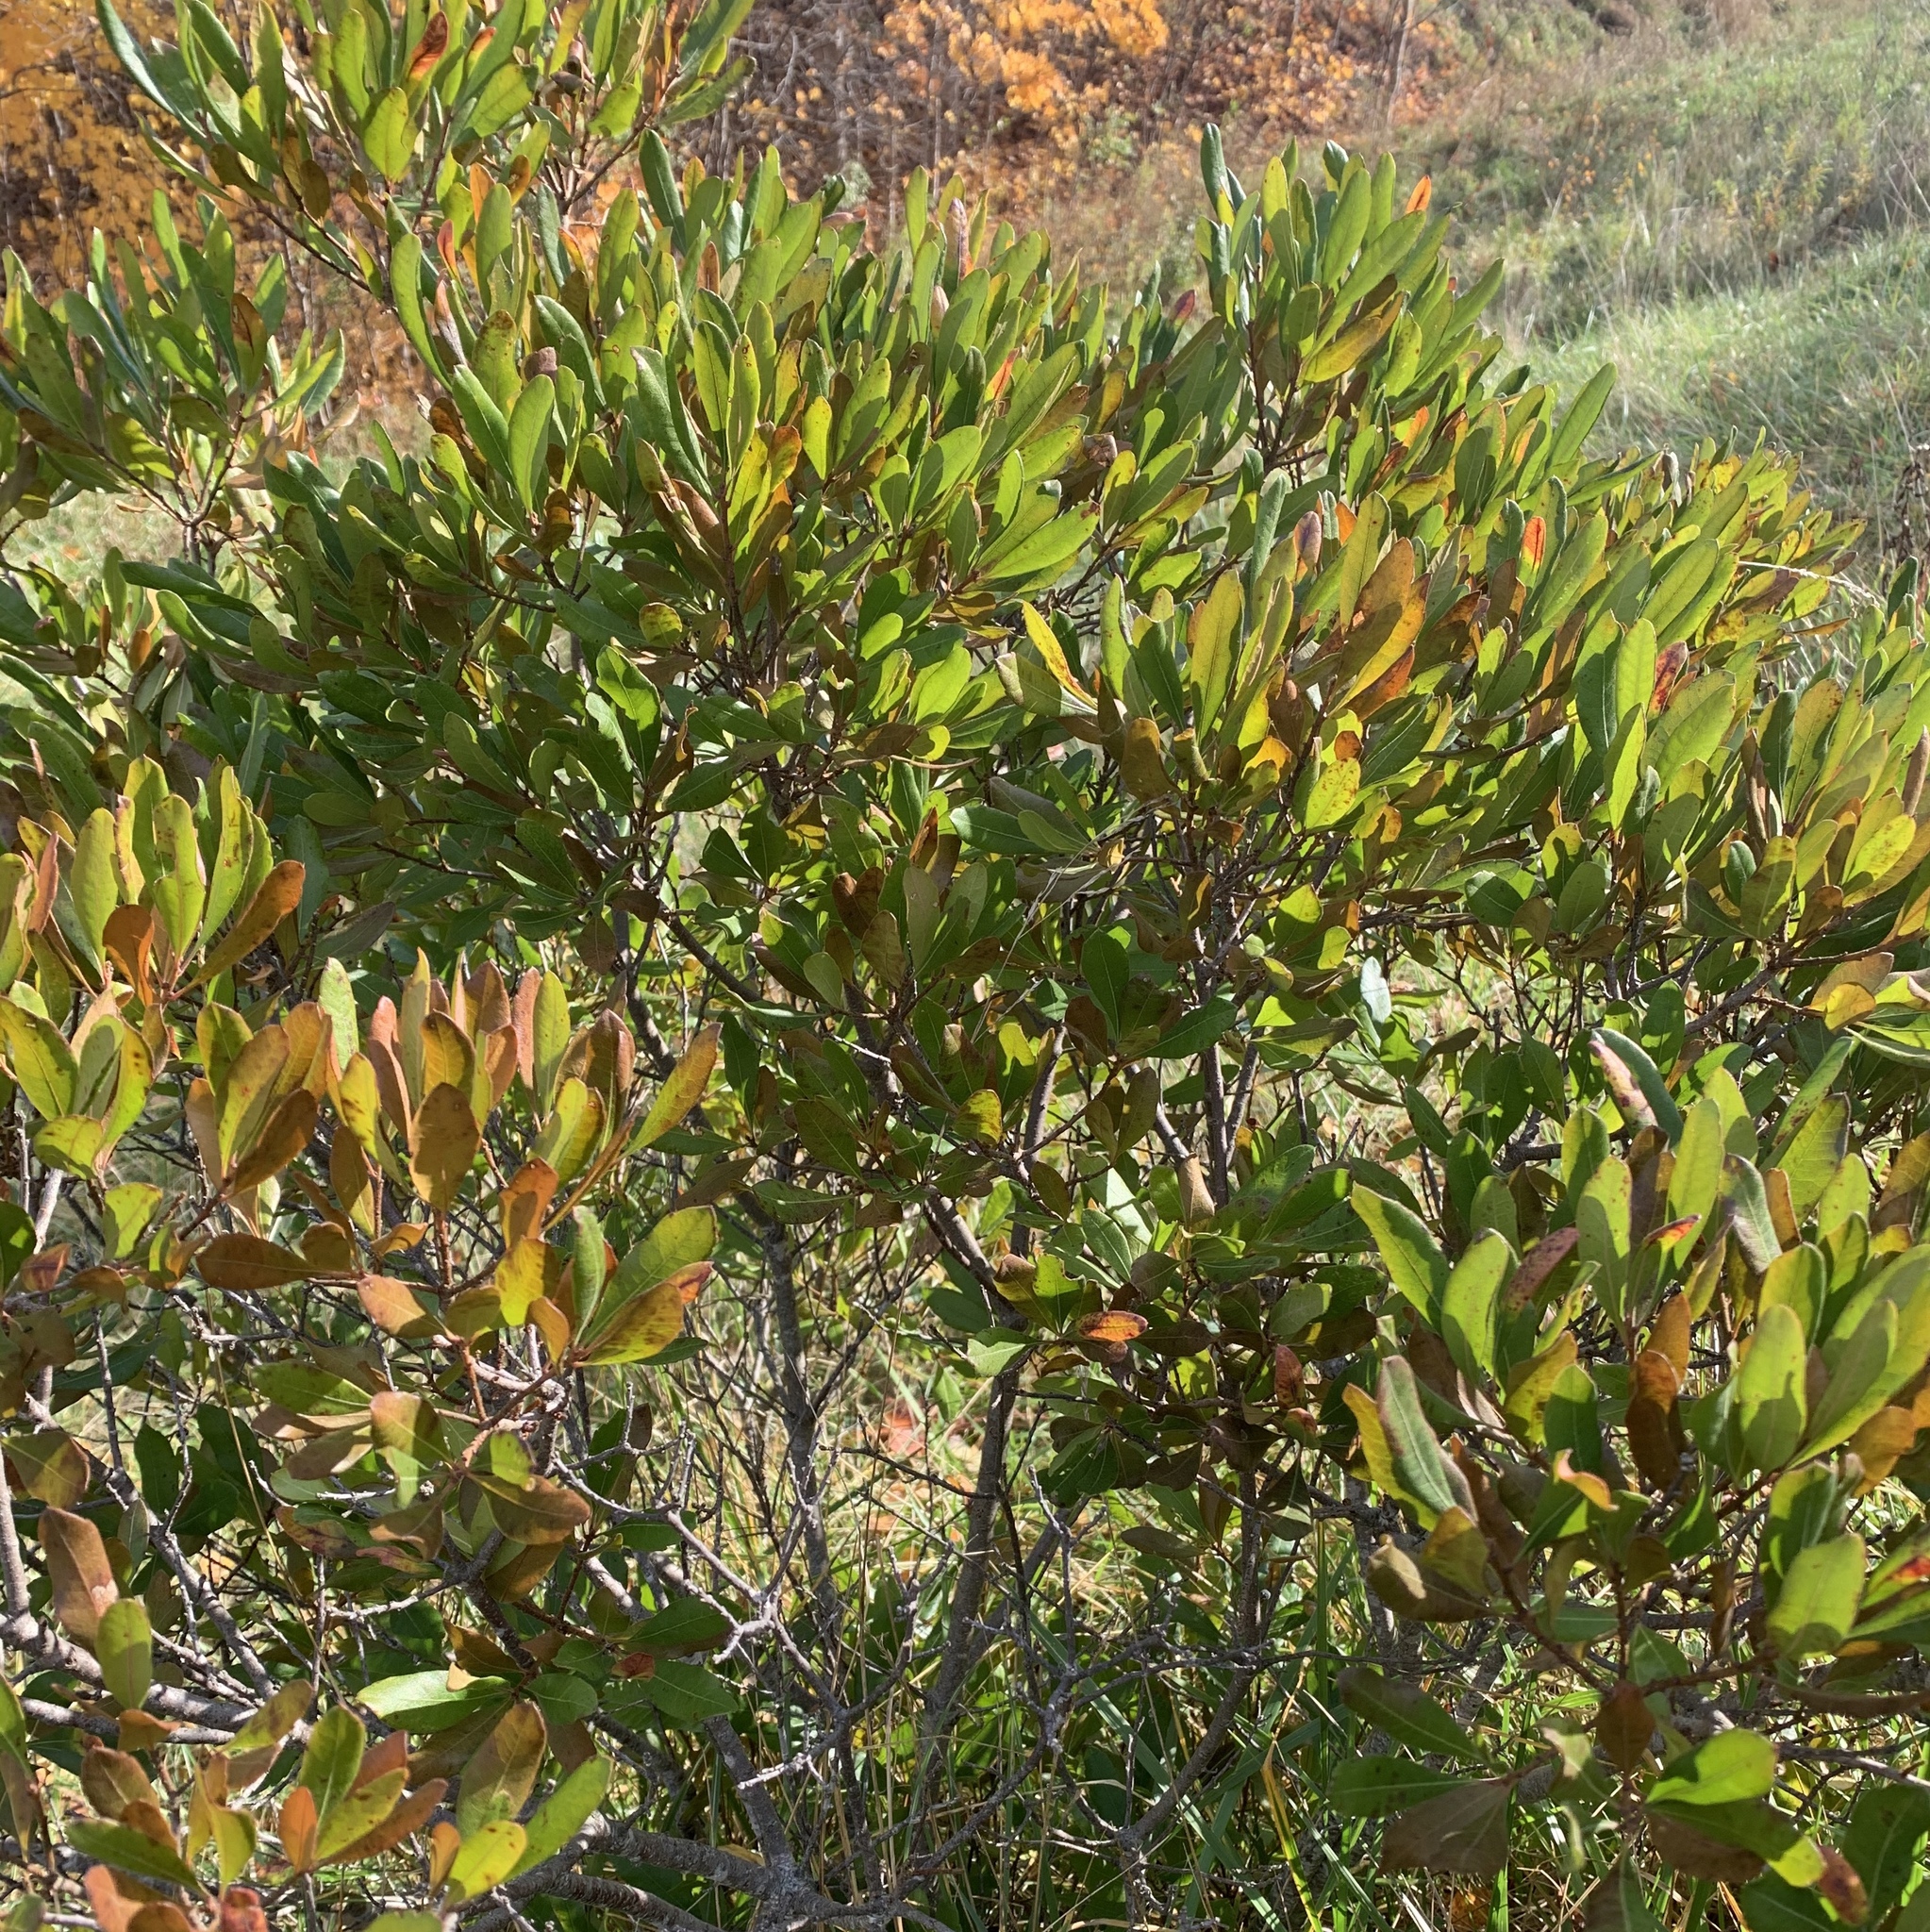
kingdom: Plantae
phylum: Tracheophyta
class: Magnoliopsida
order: Fagales
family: Myricaceae
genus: Morella
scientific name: Morella pensylvanica
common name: Northern bayberry
